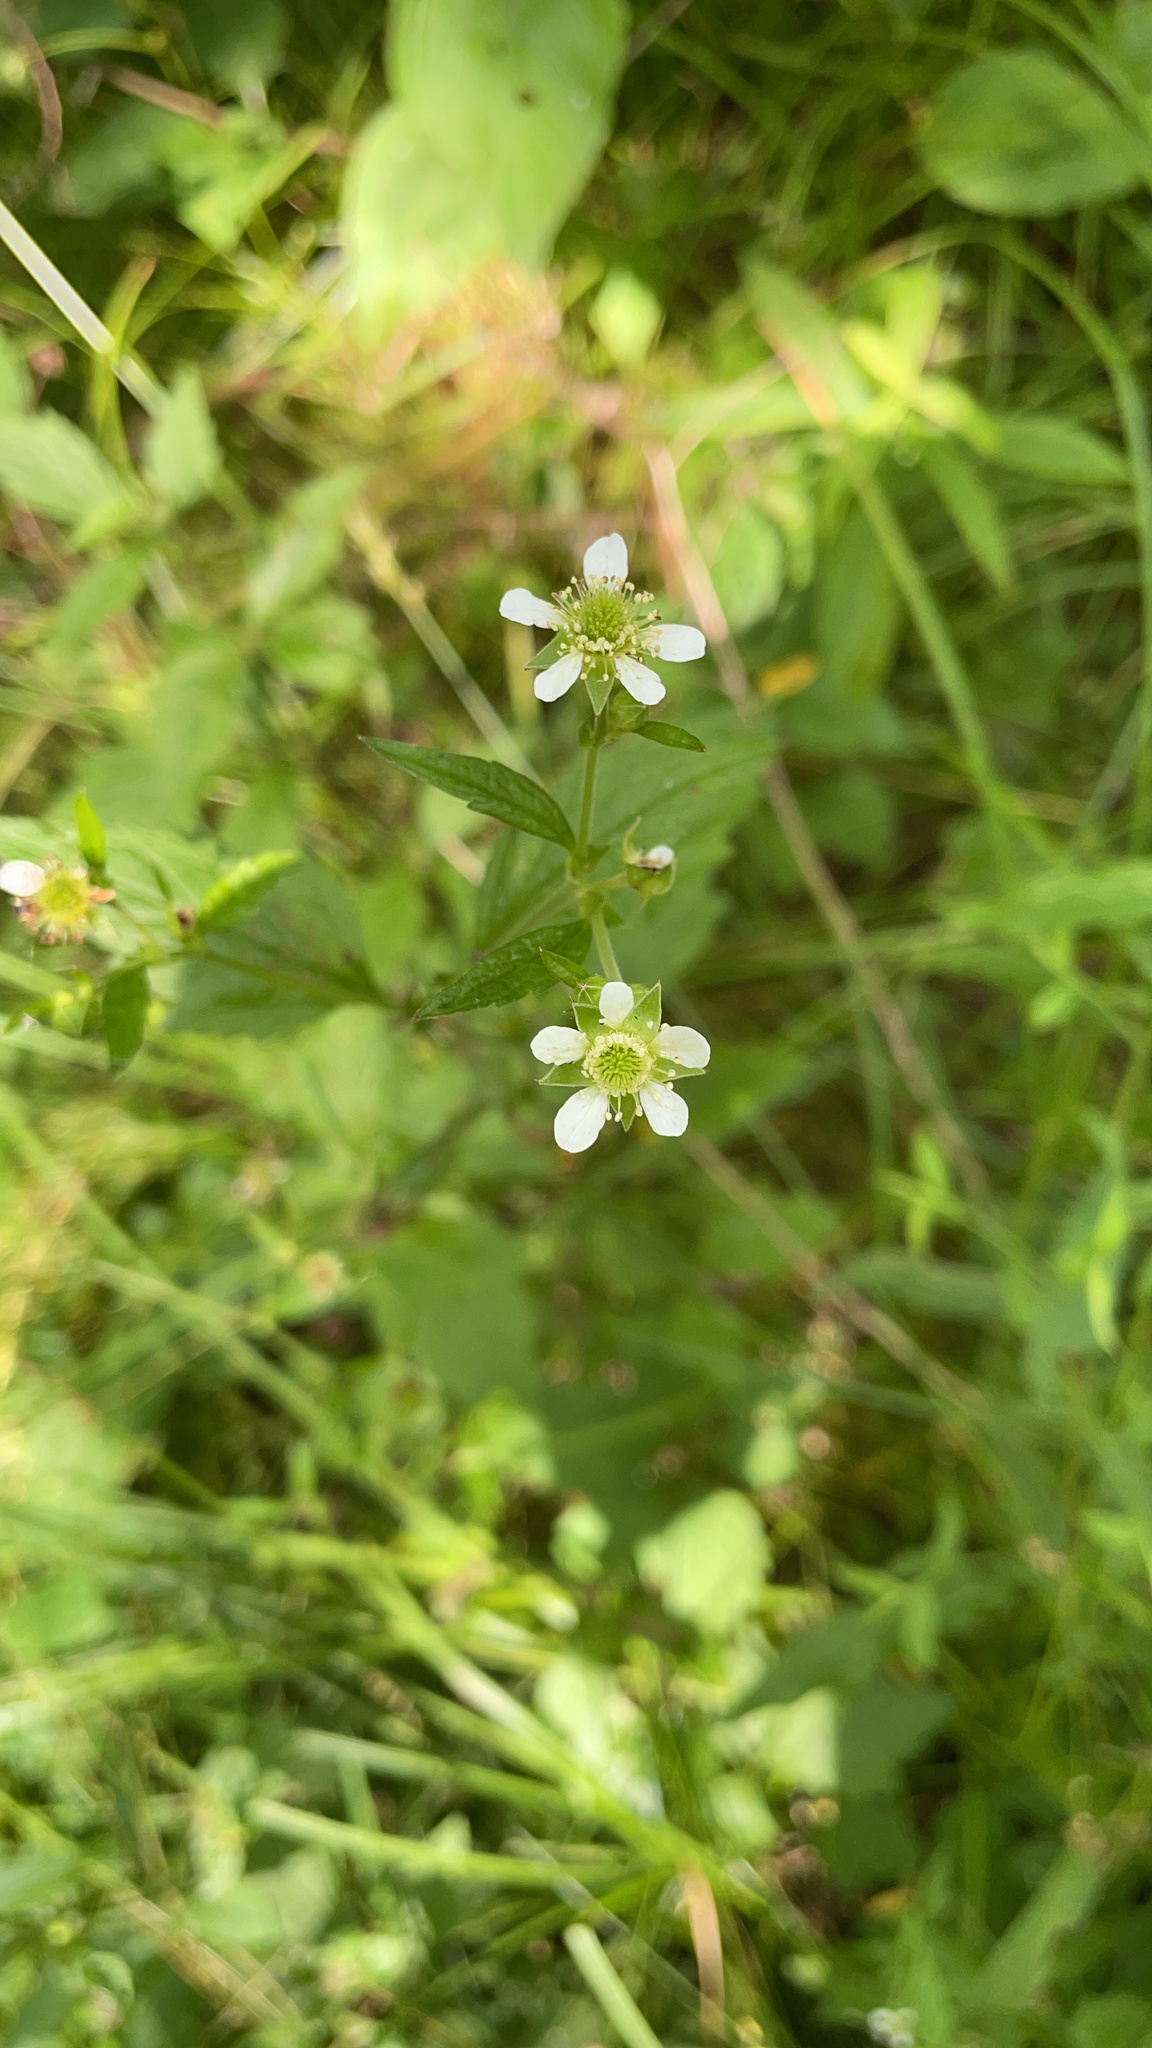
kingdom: Plantae
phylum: Tracheophyta
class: Magnoliopsida
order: Rosales
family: Rosaceae
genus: Geum
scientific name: Geum canadense
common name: White avens
